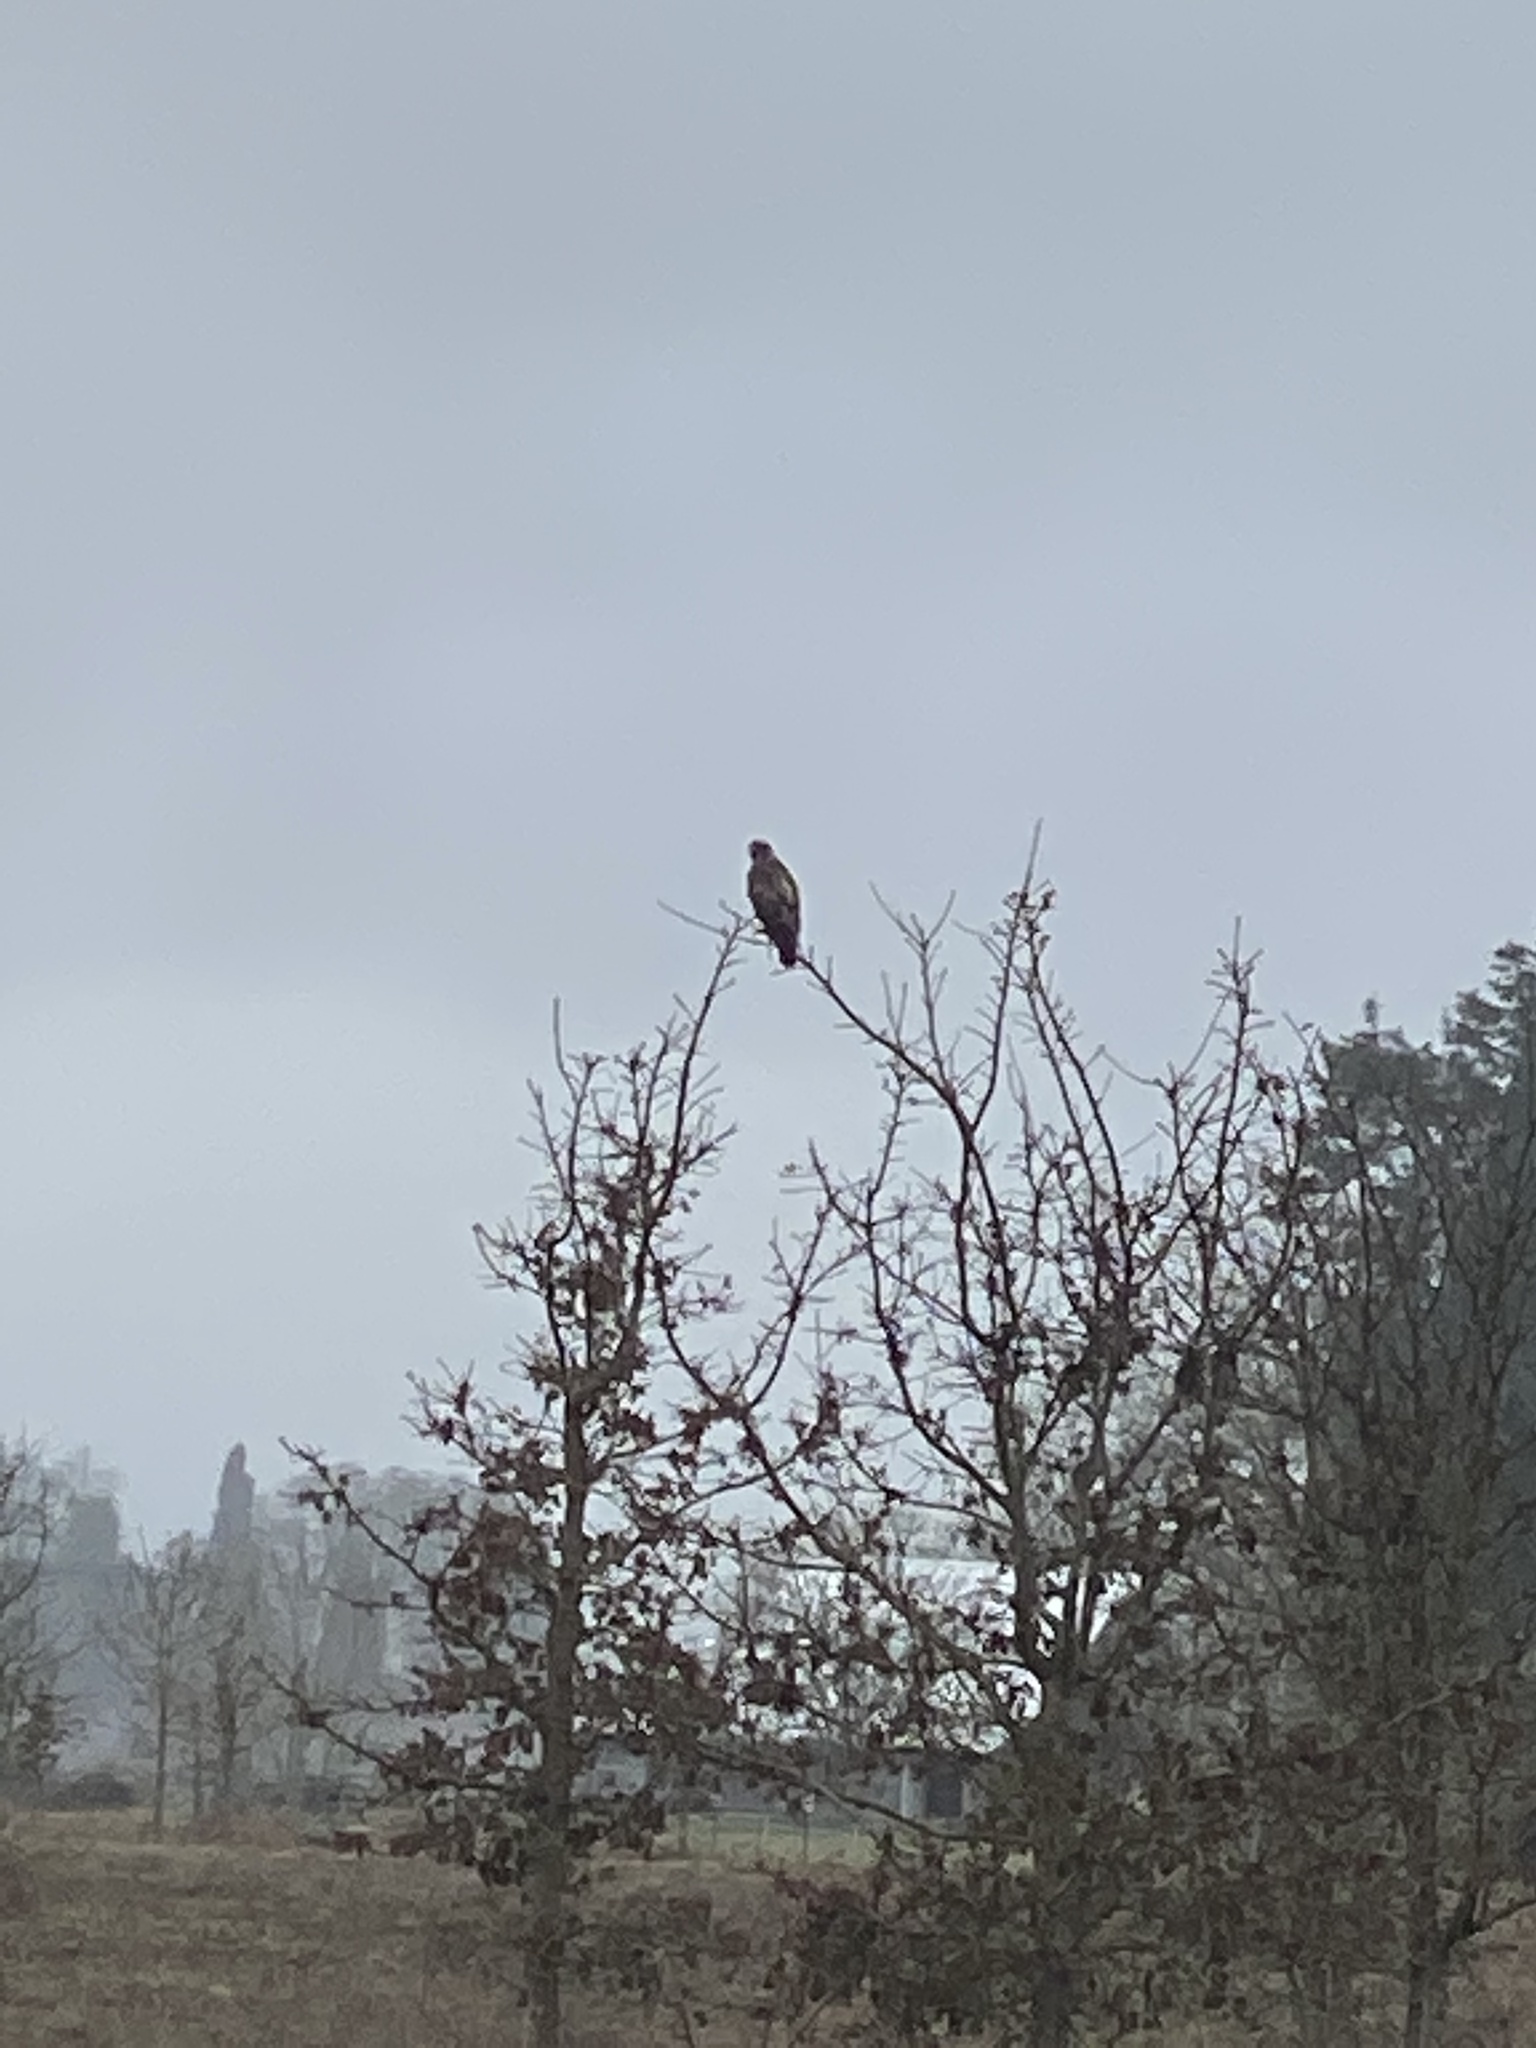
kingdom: Animalia
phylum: Chordata
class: Aves
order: Accipitriformes
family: Accipitridae
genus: Buteo
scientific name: Buteo jamaicensis
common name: Red-tailed hawk
